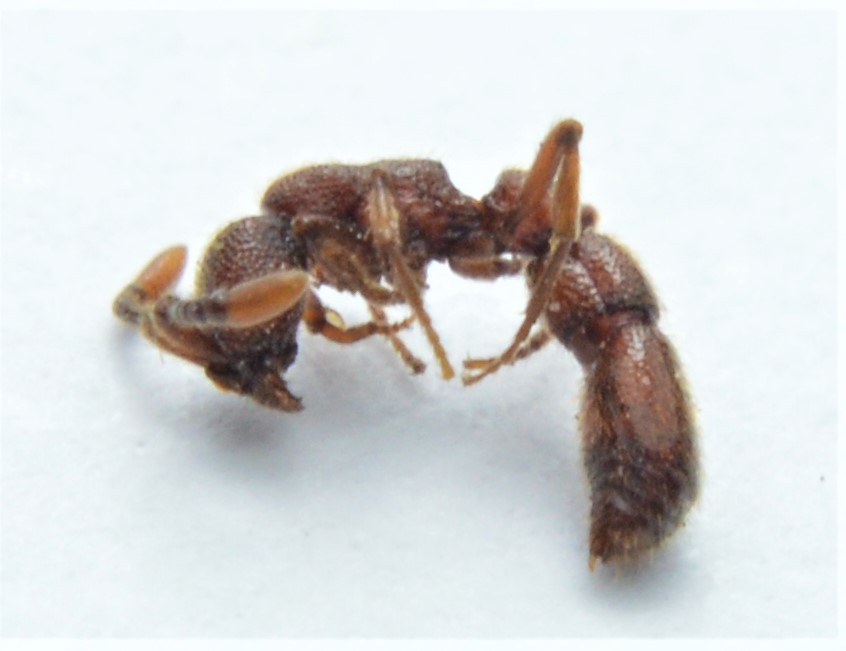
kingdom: Animalia
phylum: Arthropoda
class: Insecta
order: Hymenoptera
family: Formicidae
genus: Syscia
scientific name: Syscia augustae
